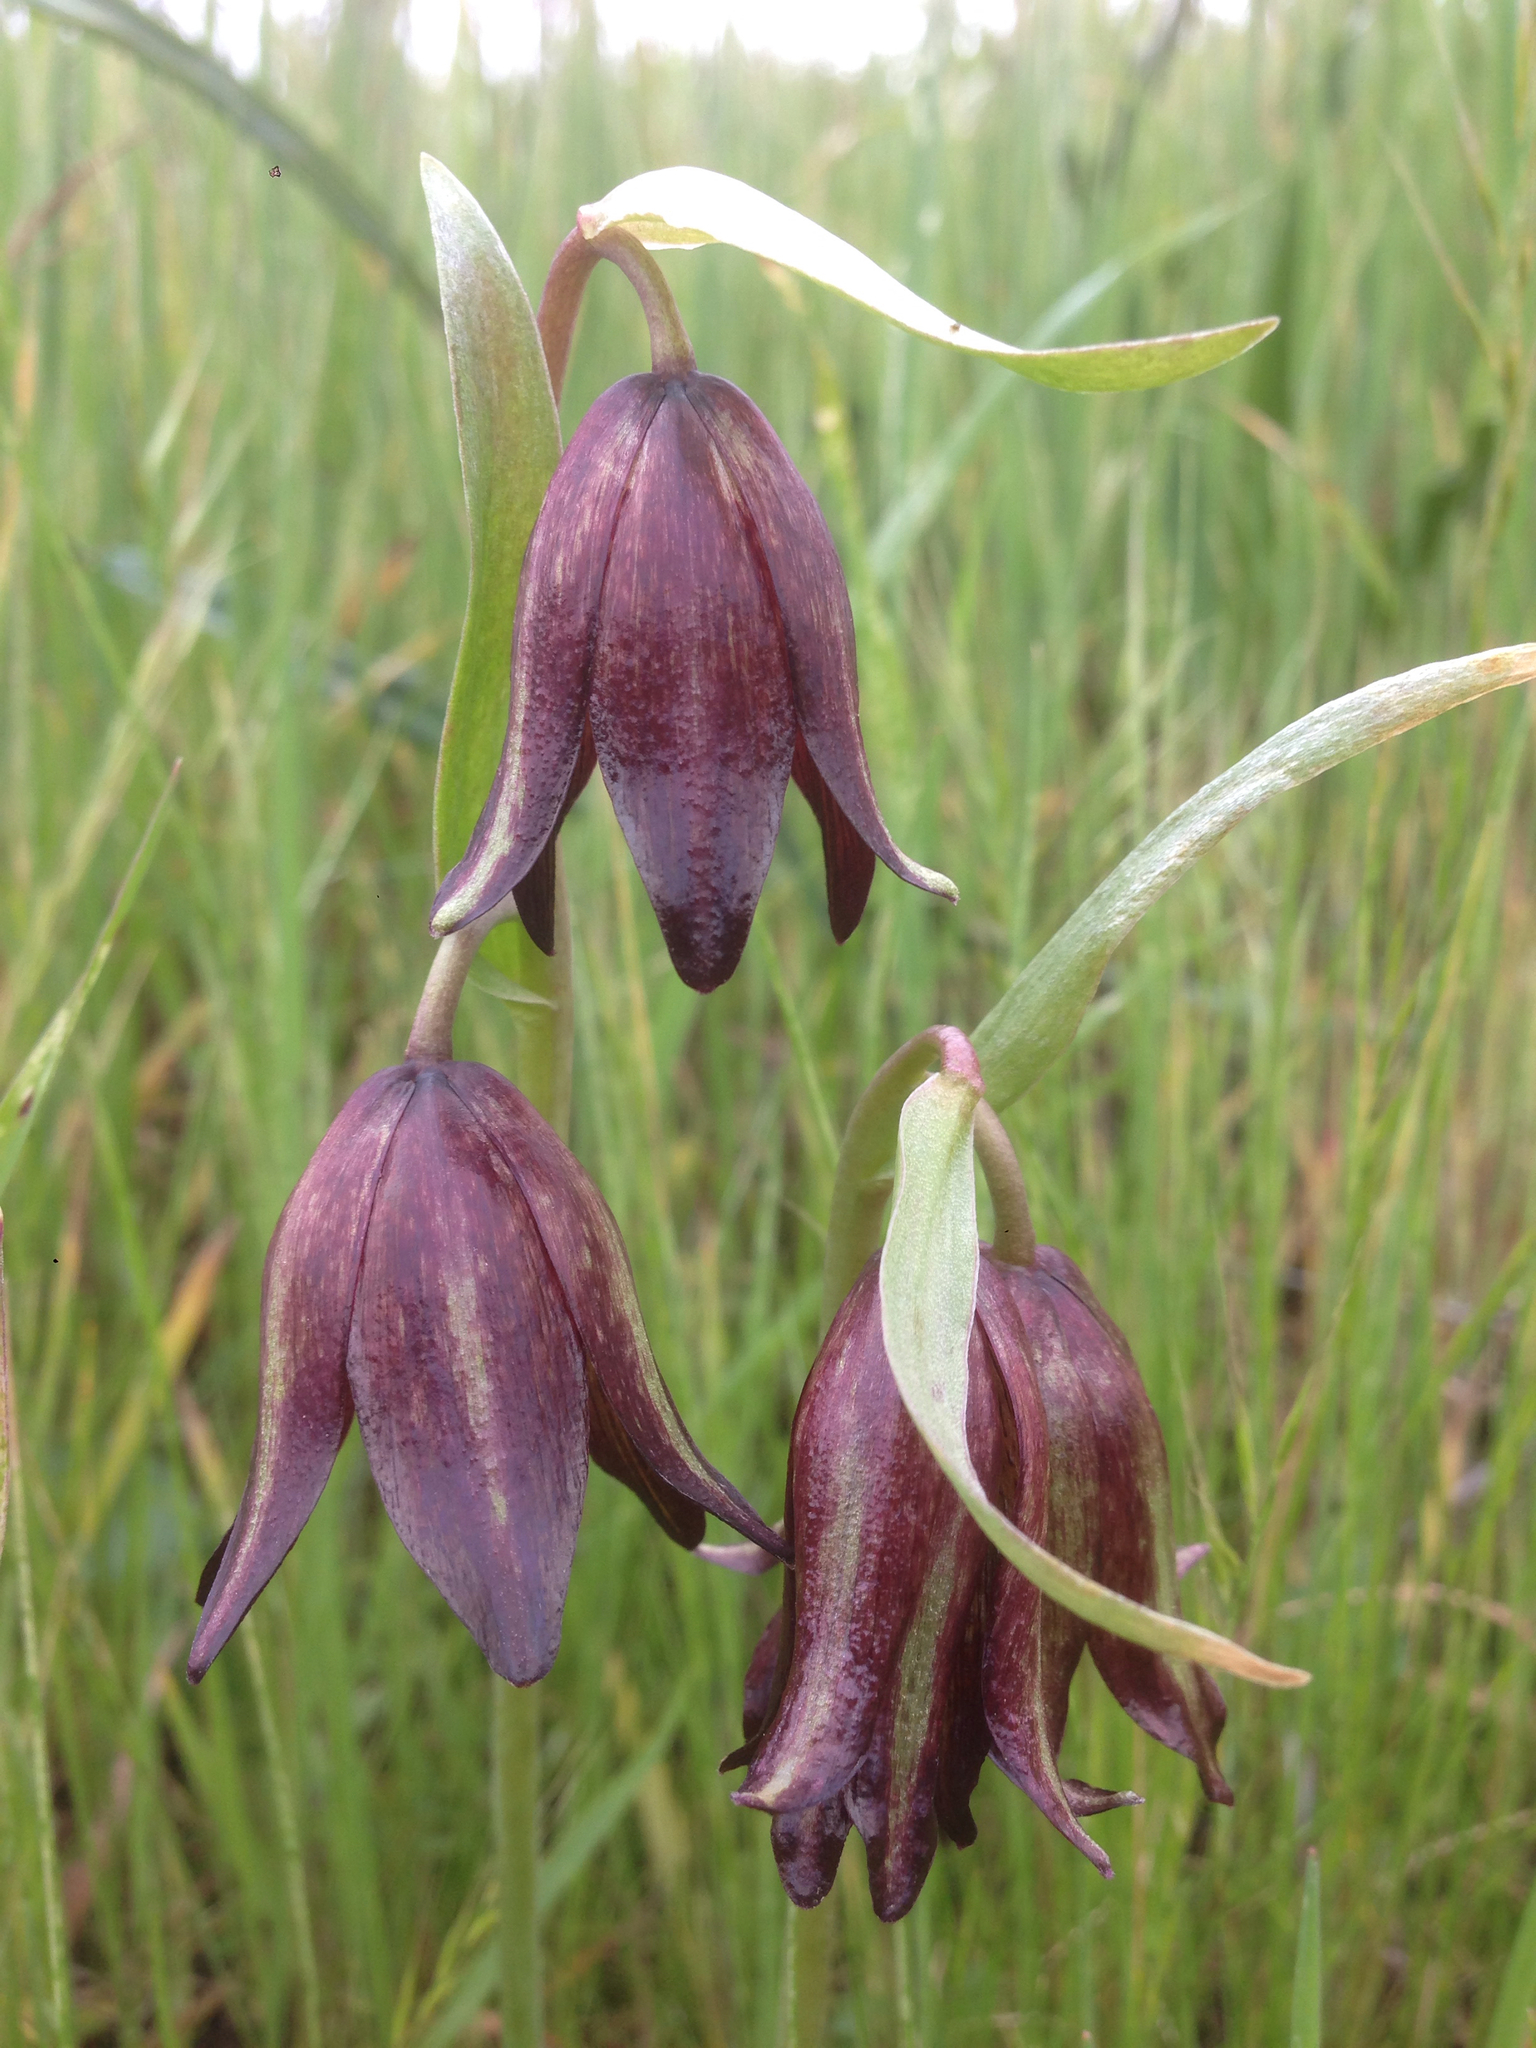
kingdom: Plantae
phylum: Tracheophyta
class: Liliopsida
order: Liliales
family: Liliaceae
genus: Fritillaria
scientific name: Fritillaria biflora
